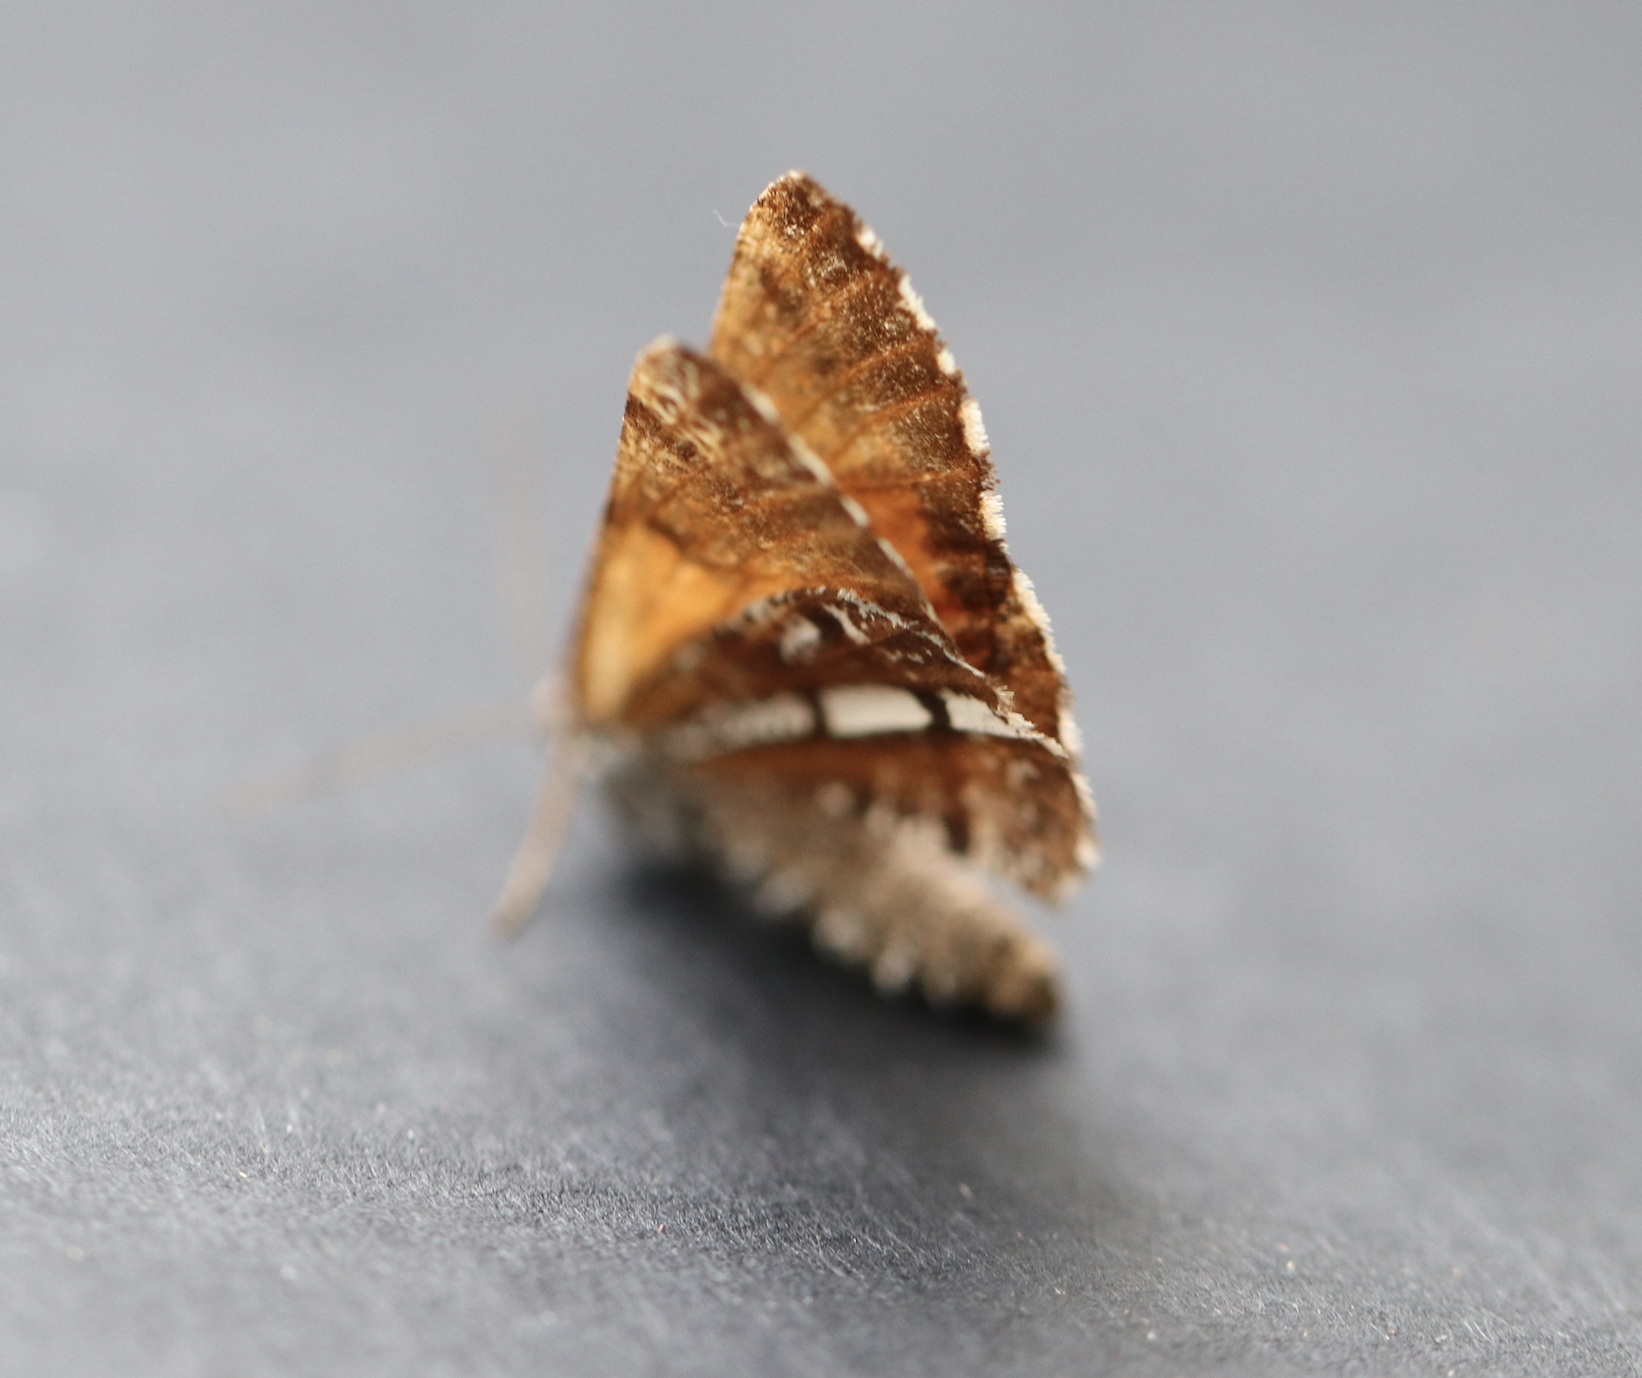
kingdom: Animalia
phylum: Arthropoda
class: Insecta
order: Lepidoptera
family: Geometridae
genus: Bupalus
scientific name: Bupalus piniaria
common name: Bordered white
